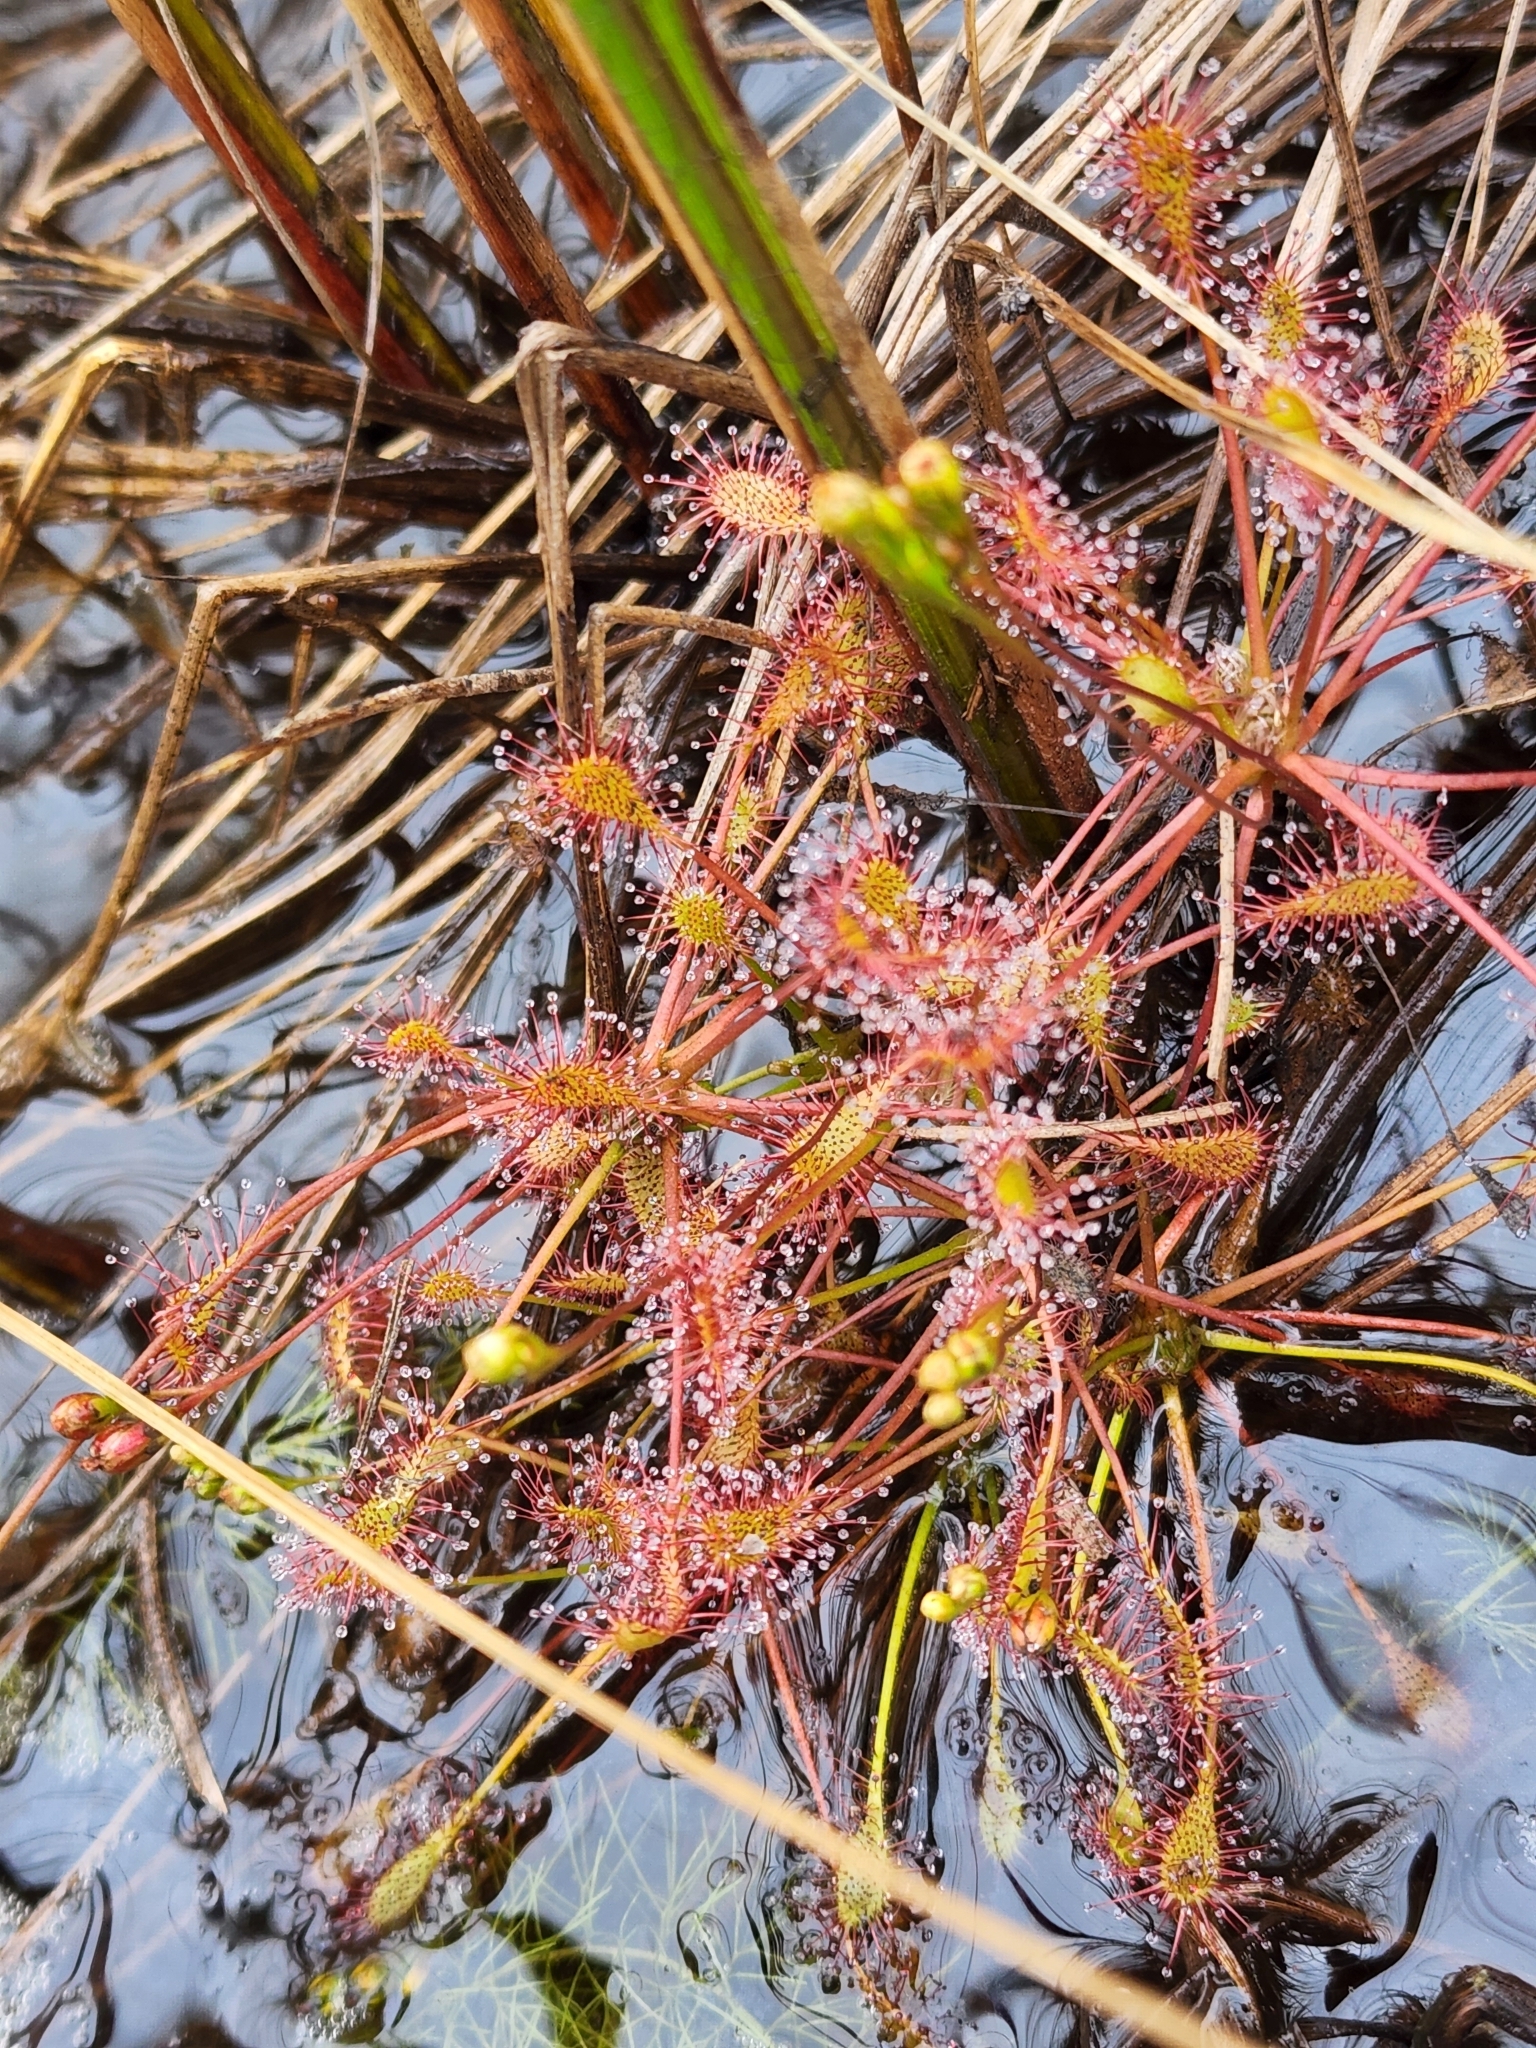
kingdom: Plantae
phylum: Tracheophyta
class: Magnoliopsida
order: Caryophyllales
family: Droseraceae
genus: Drosera
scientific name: Drosera intermedia
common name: Oblong-leaved sundew
